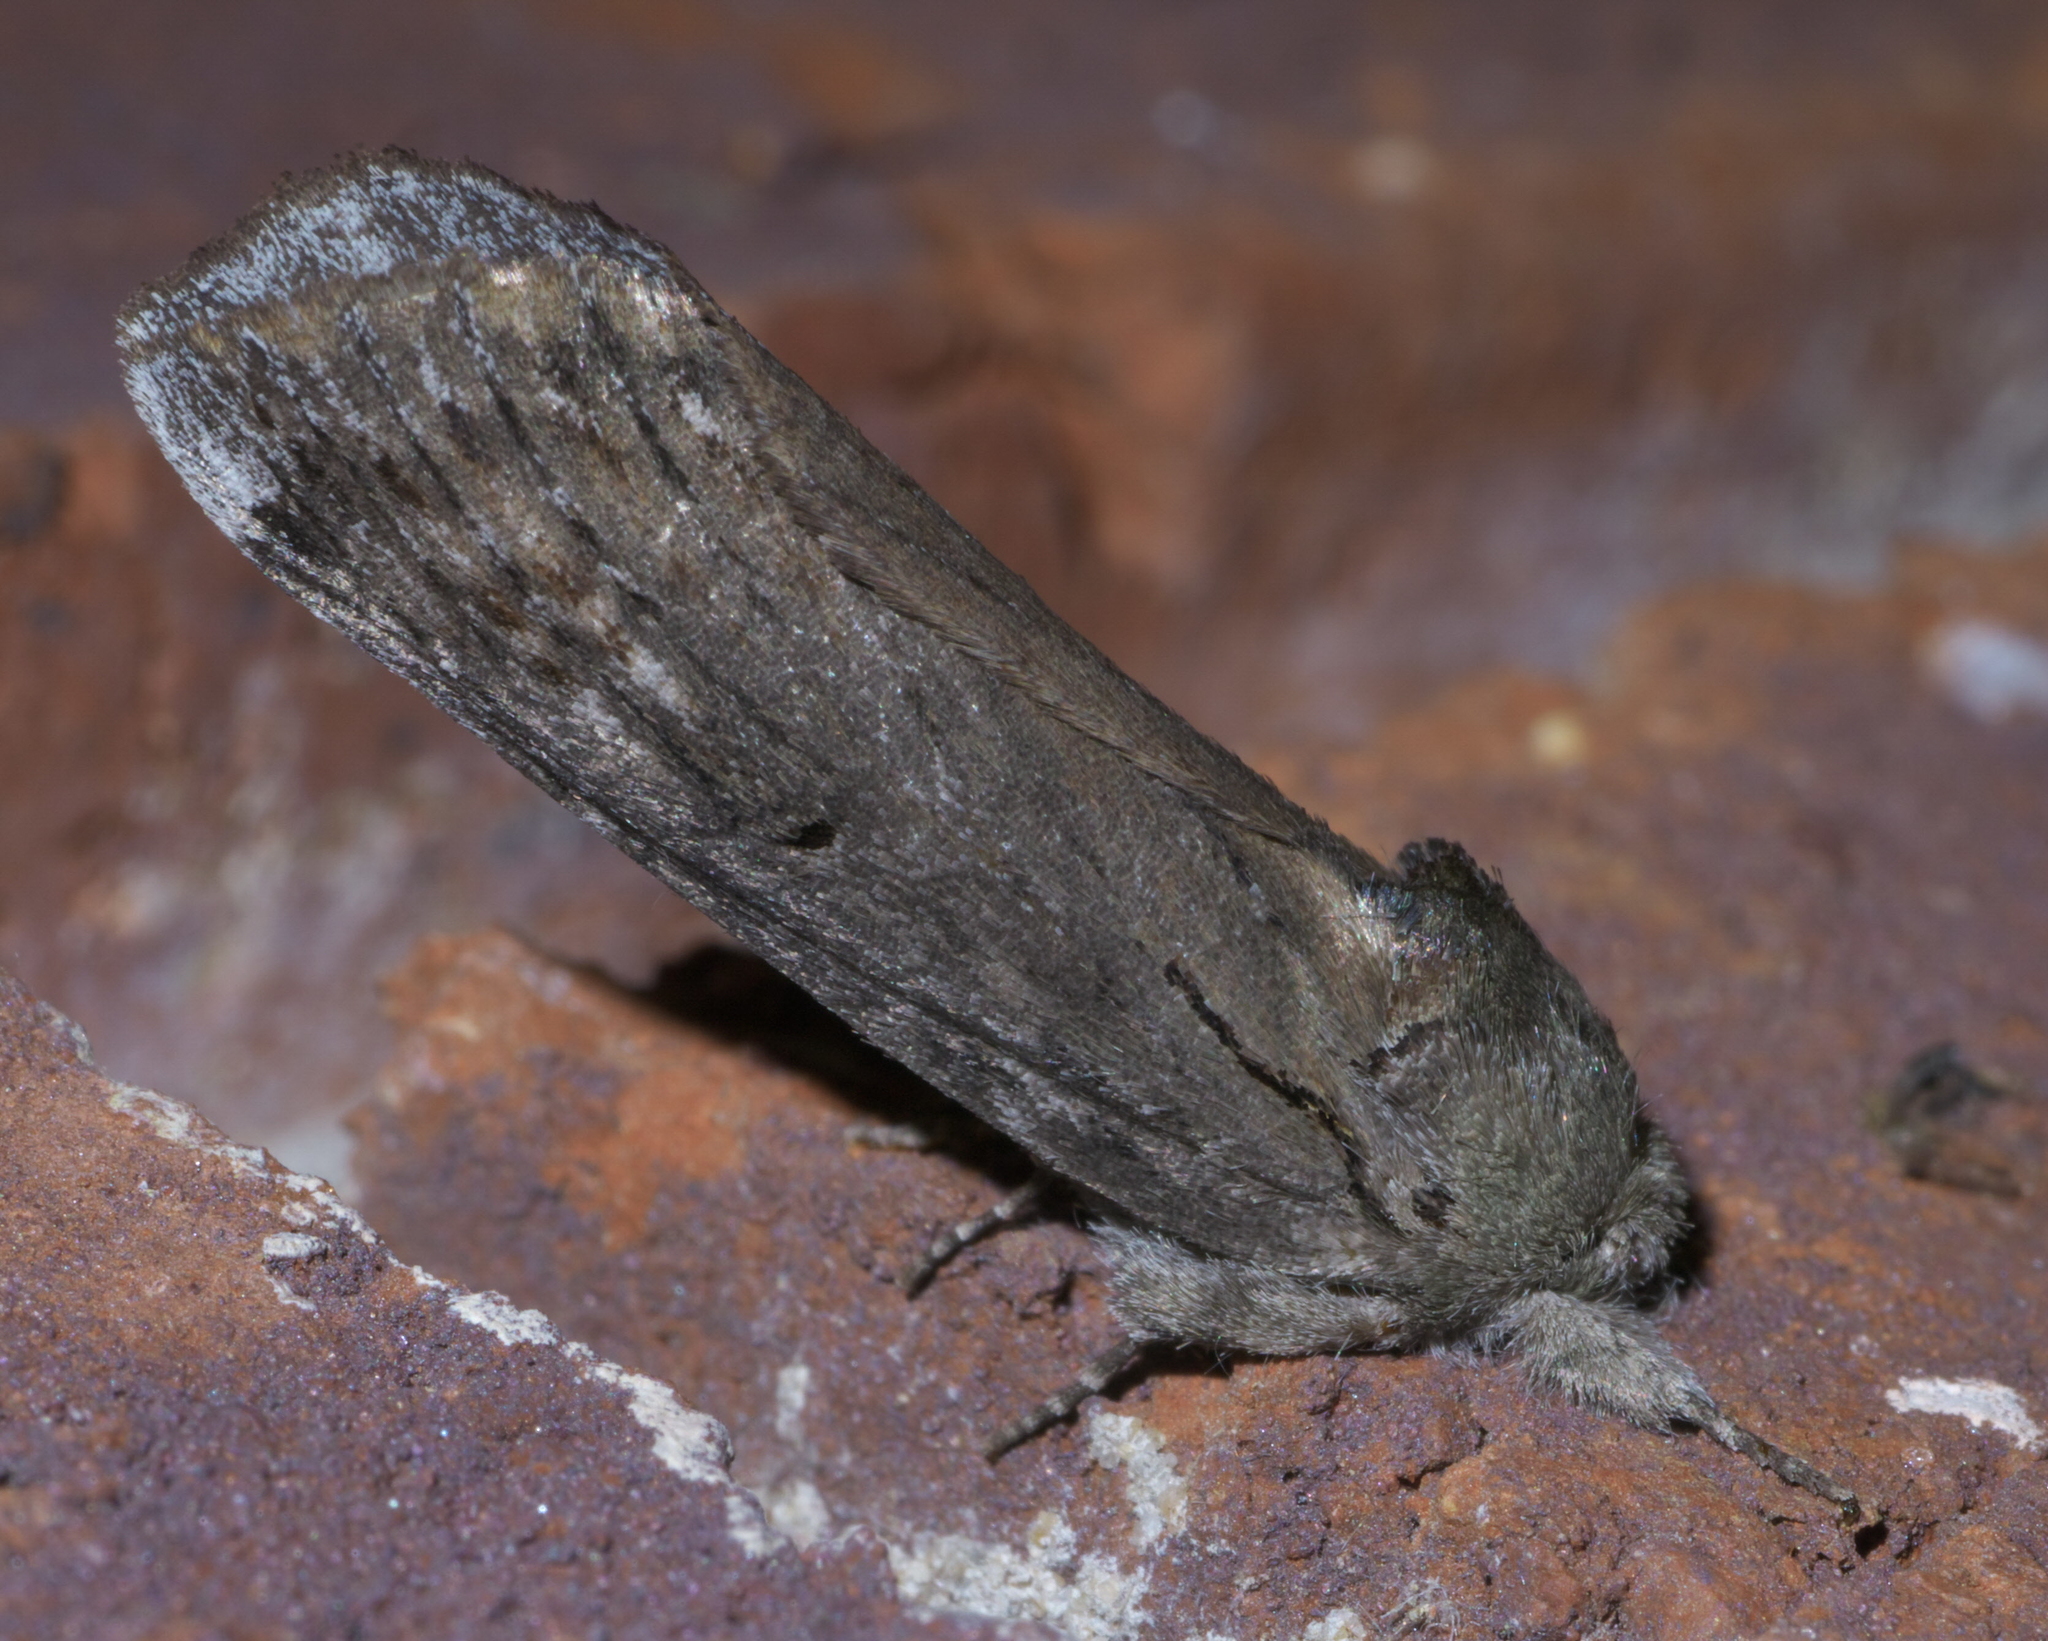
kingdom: Animalia
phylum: Arthropoda
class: Insecta
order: Lepidoptera
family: Notodontidae
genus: Schizura
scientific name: Schizura
